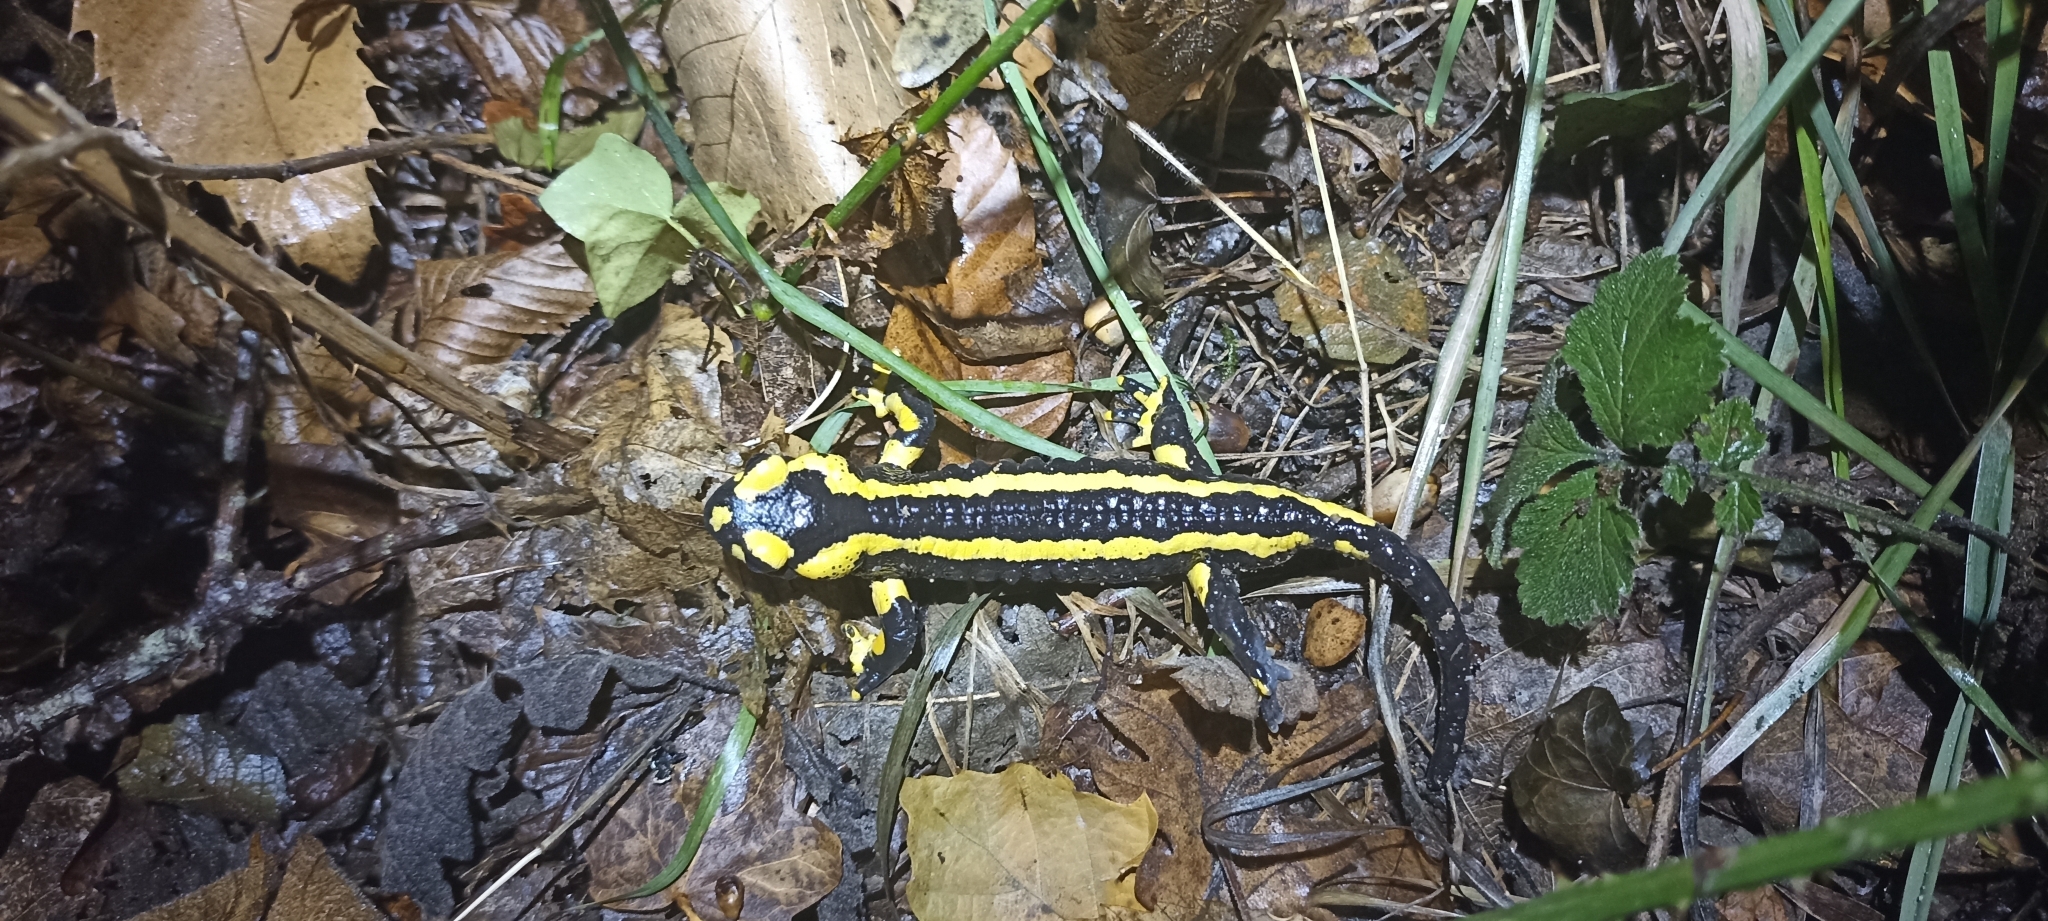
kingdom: Animalia
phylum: Chordata
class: Amphibia
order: Caudata
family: Salamandridae
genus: Salamandra
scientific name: Salamandra salamandra
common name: Fire salamander
